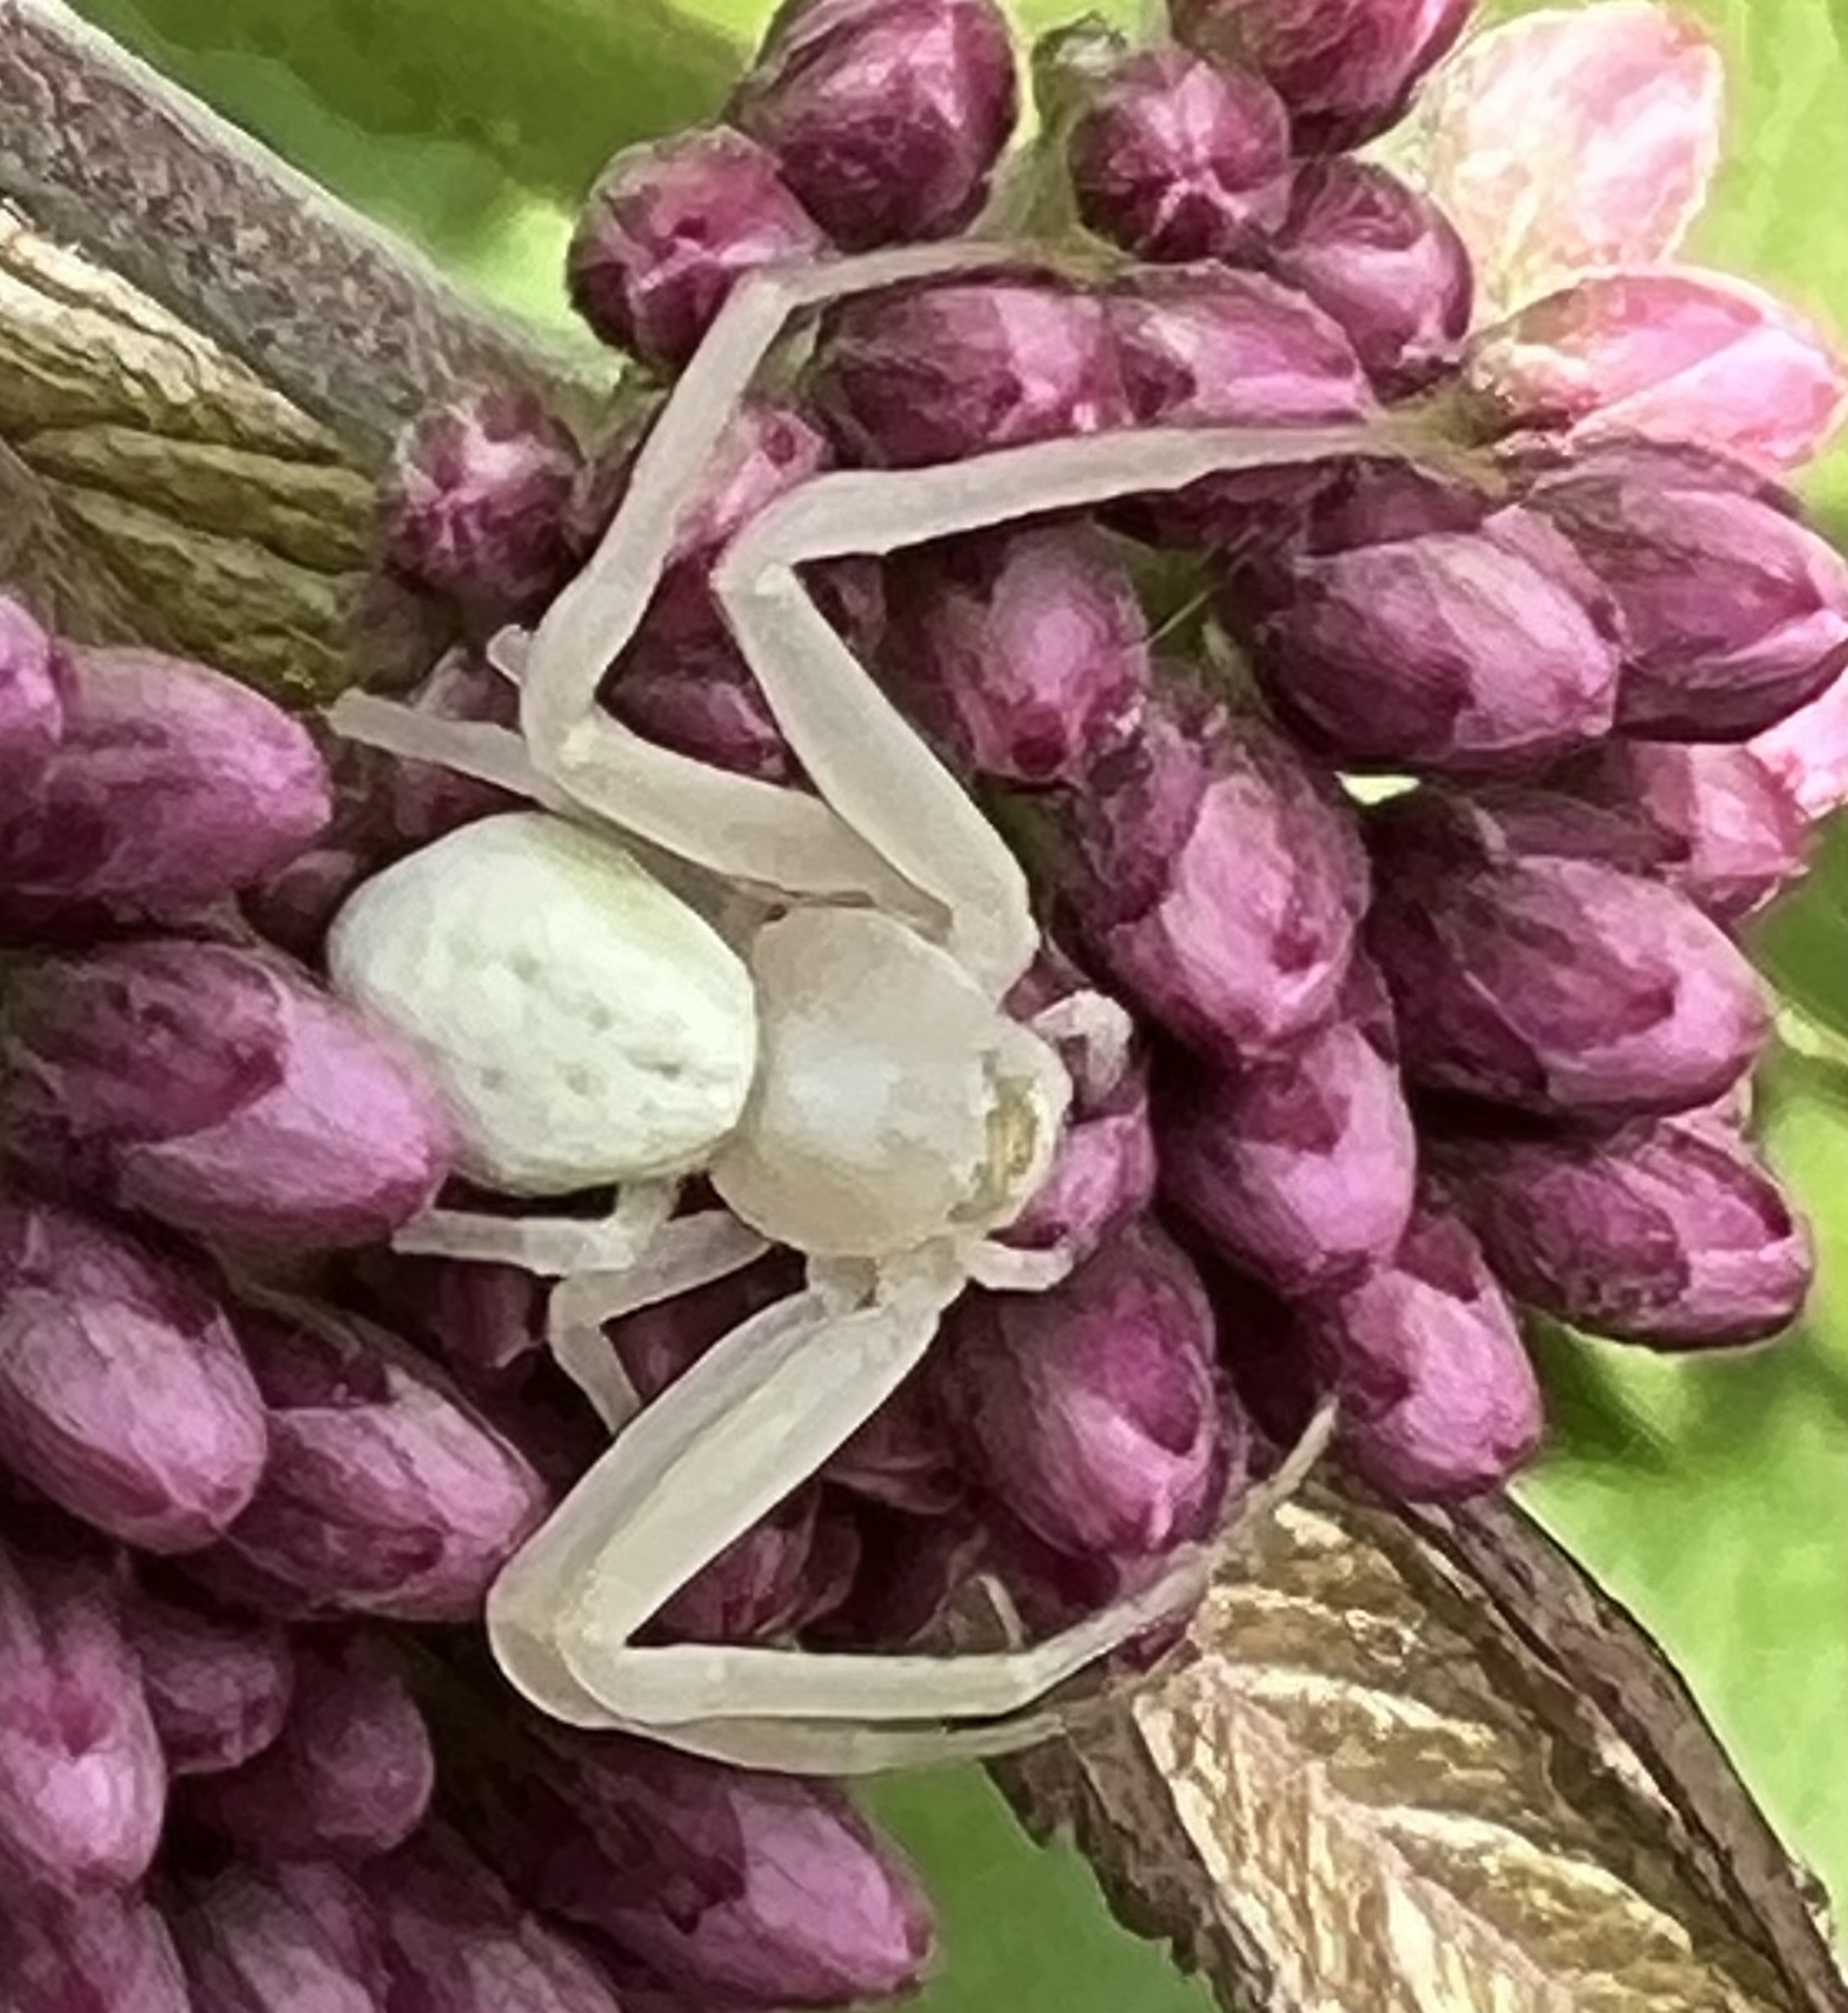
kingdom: Animalia
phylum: Arthropoda
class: Arachnida
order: Araneae
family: Thomisidae
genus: Misumena
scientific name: Misumena vatia
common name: Goldenrod crab spider
